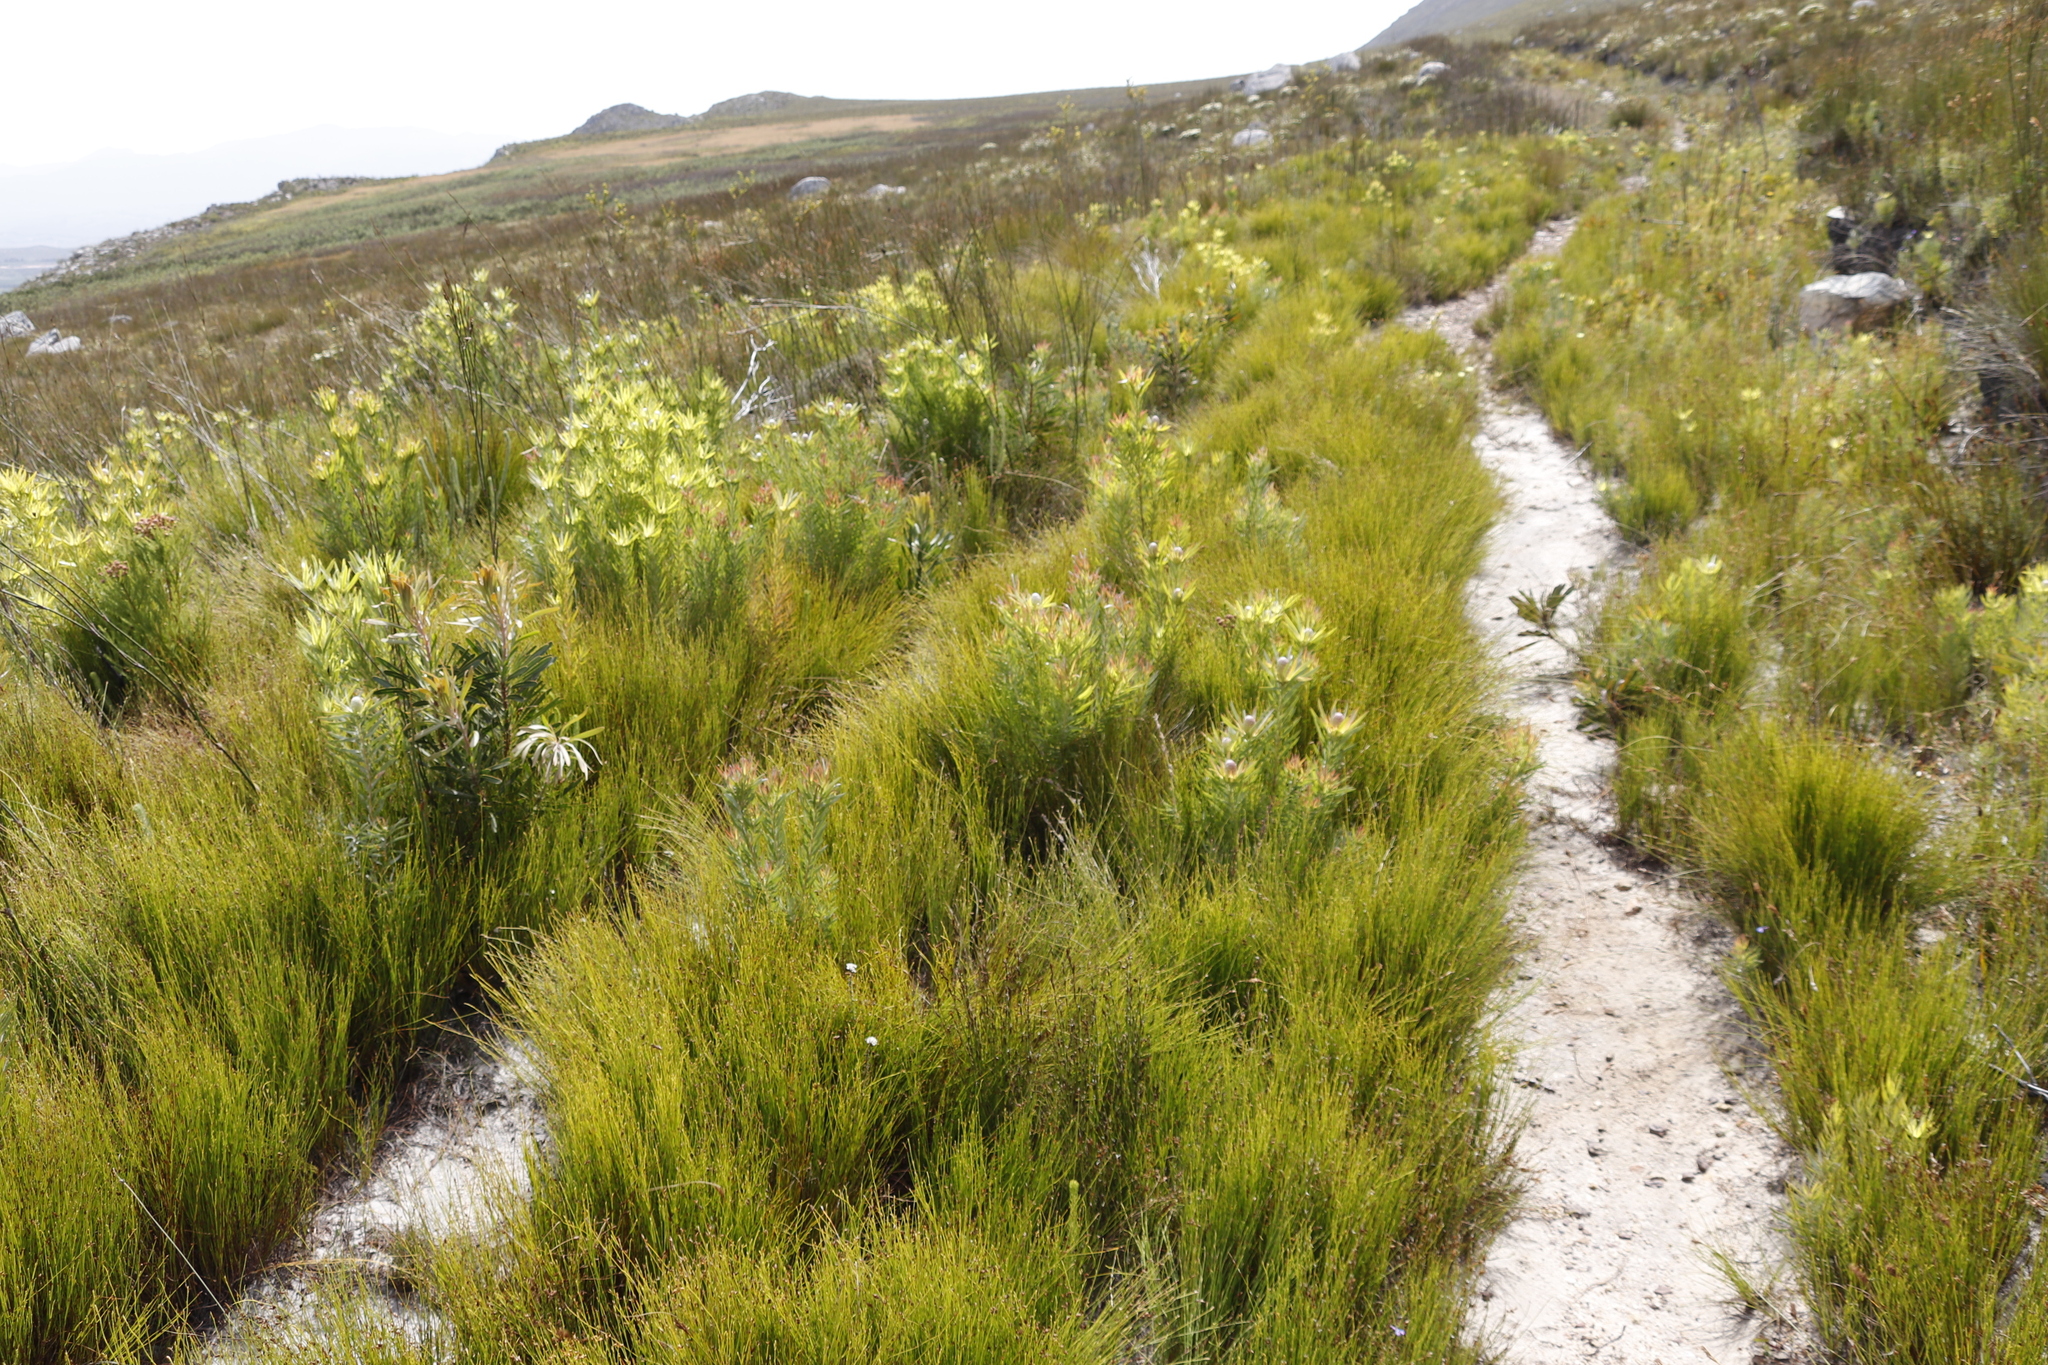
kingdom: Plantae
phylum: Tracheophyta
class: Magnoliopsida
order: Proteales
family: Proteaceae
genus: Leucadendron
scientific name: Leucadendron xanthoconus
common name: Sickle-leaf conebush
